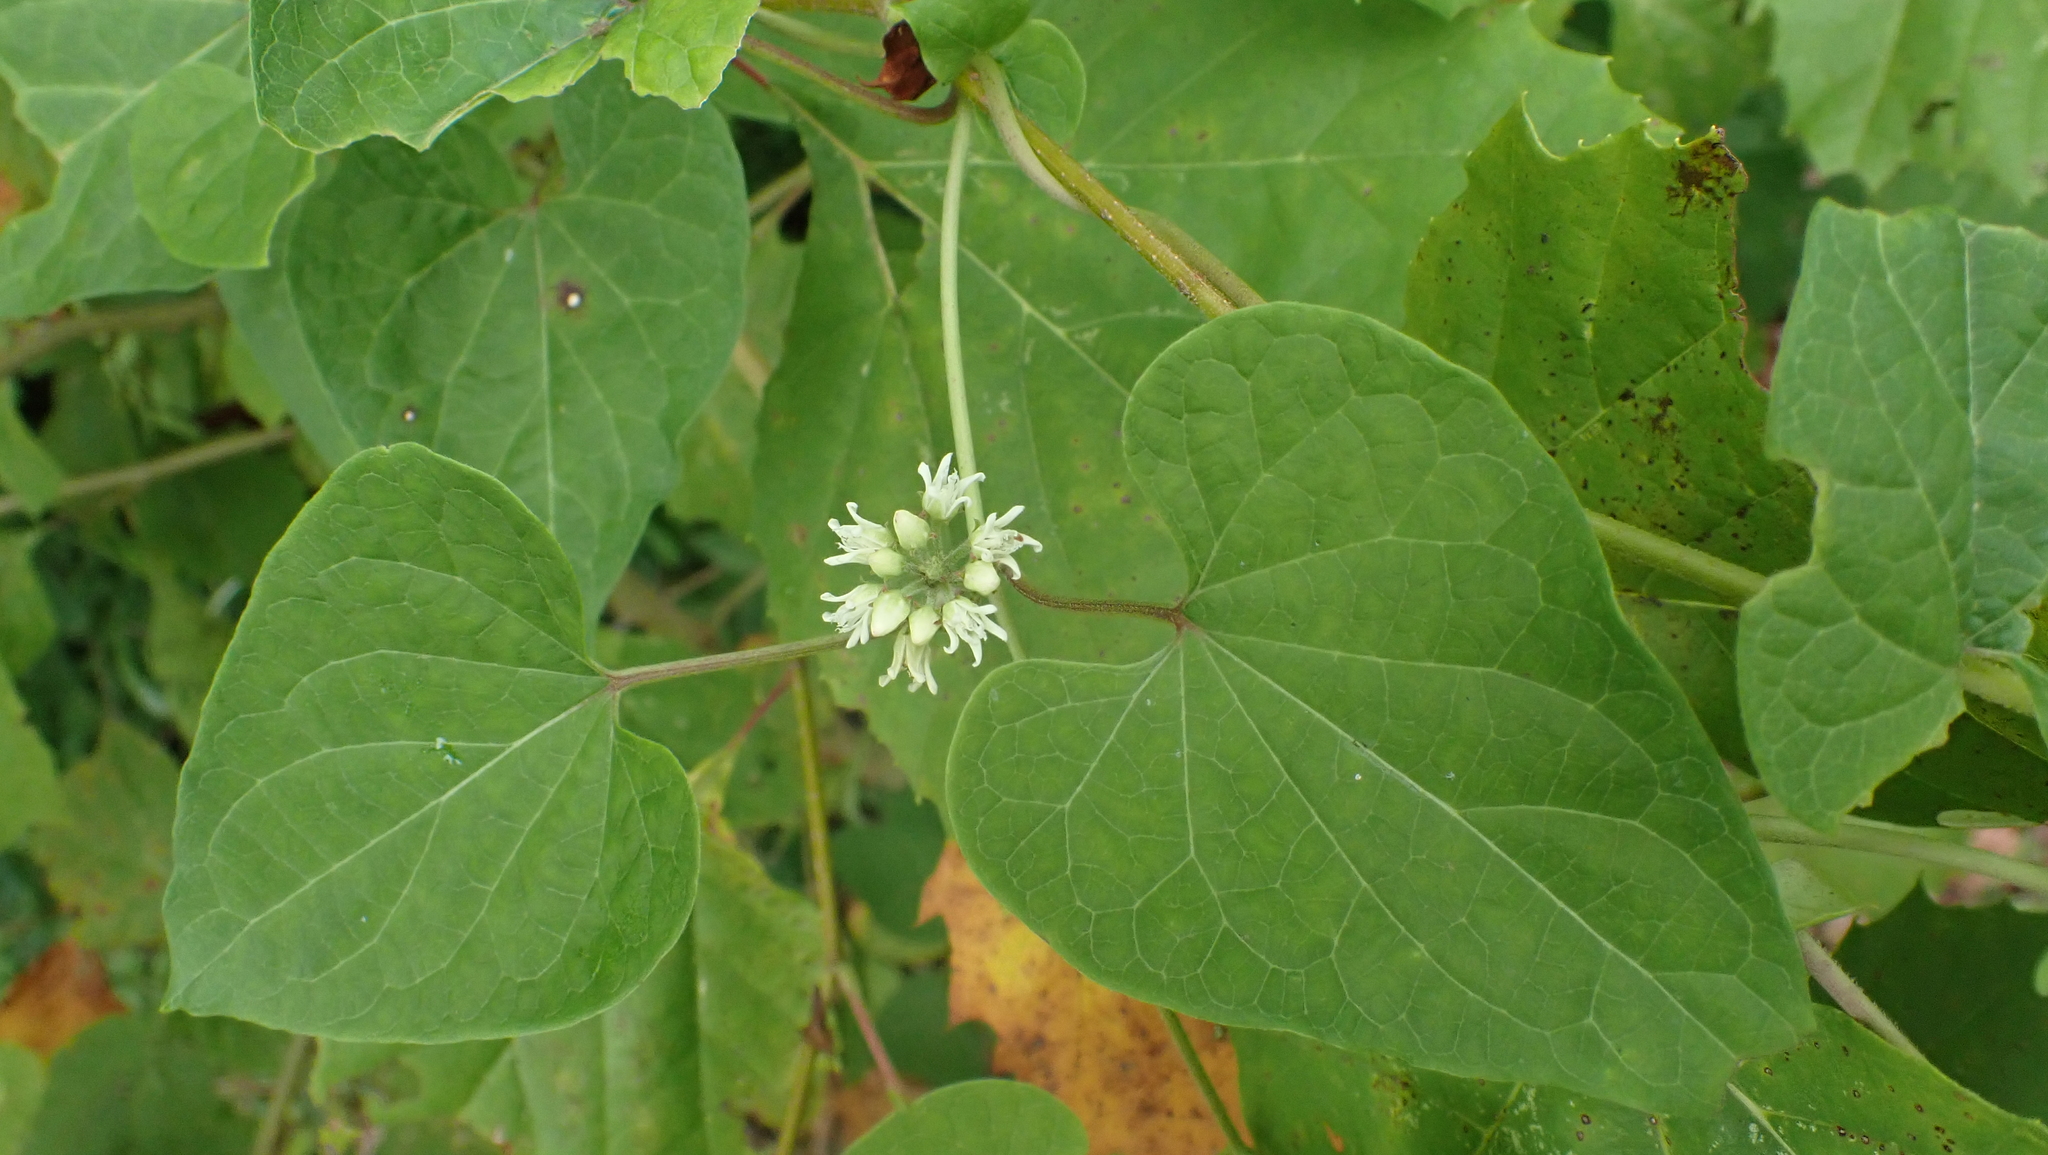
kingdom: Plantae
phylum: Tracheophyta
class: Magnoliopsida
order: Gentianales
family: Apocynaceae
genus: Cynanchum
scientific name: Cynanchum laeve
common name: Sandvine
